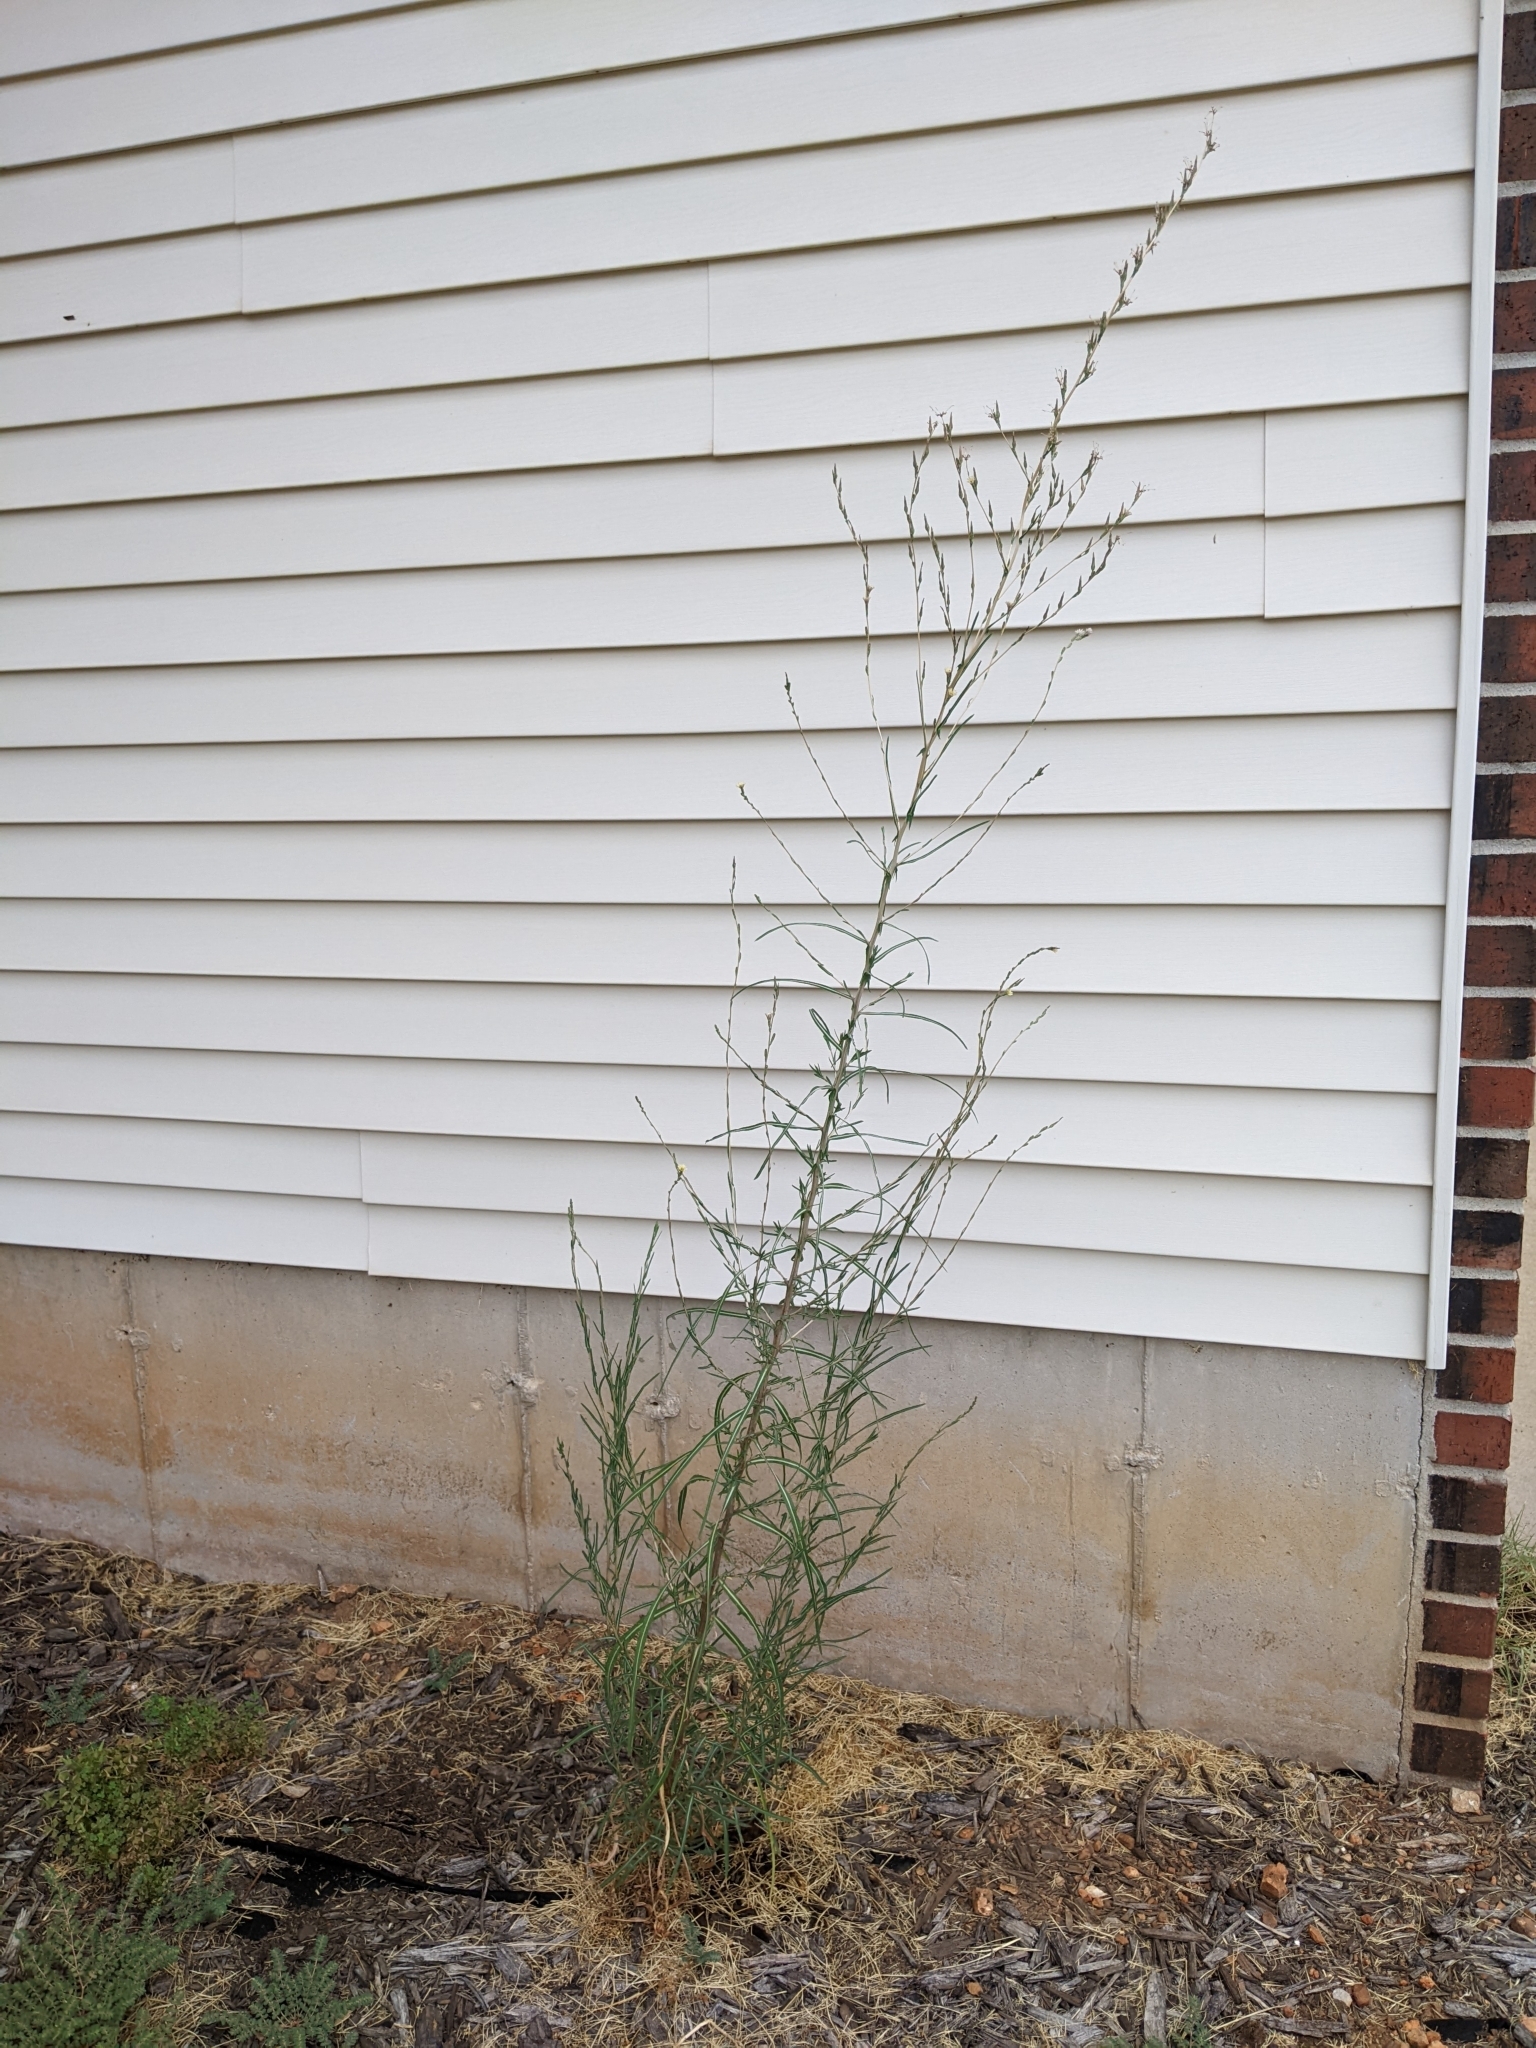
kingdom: Plantae
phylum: Tracheophyta
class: Magnoliopsida
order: Asterales
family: Asteraceae
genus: Lactuca
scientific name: Lactuca saligna
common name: Wild lettuce
